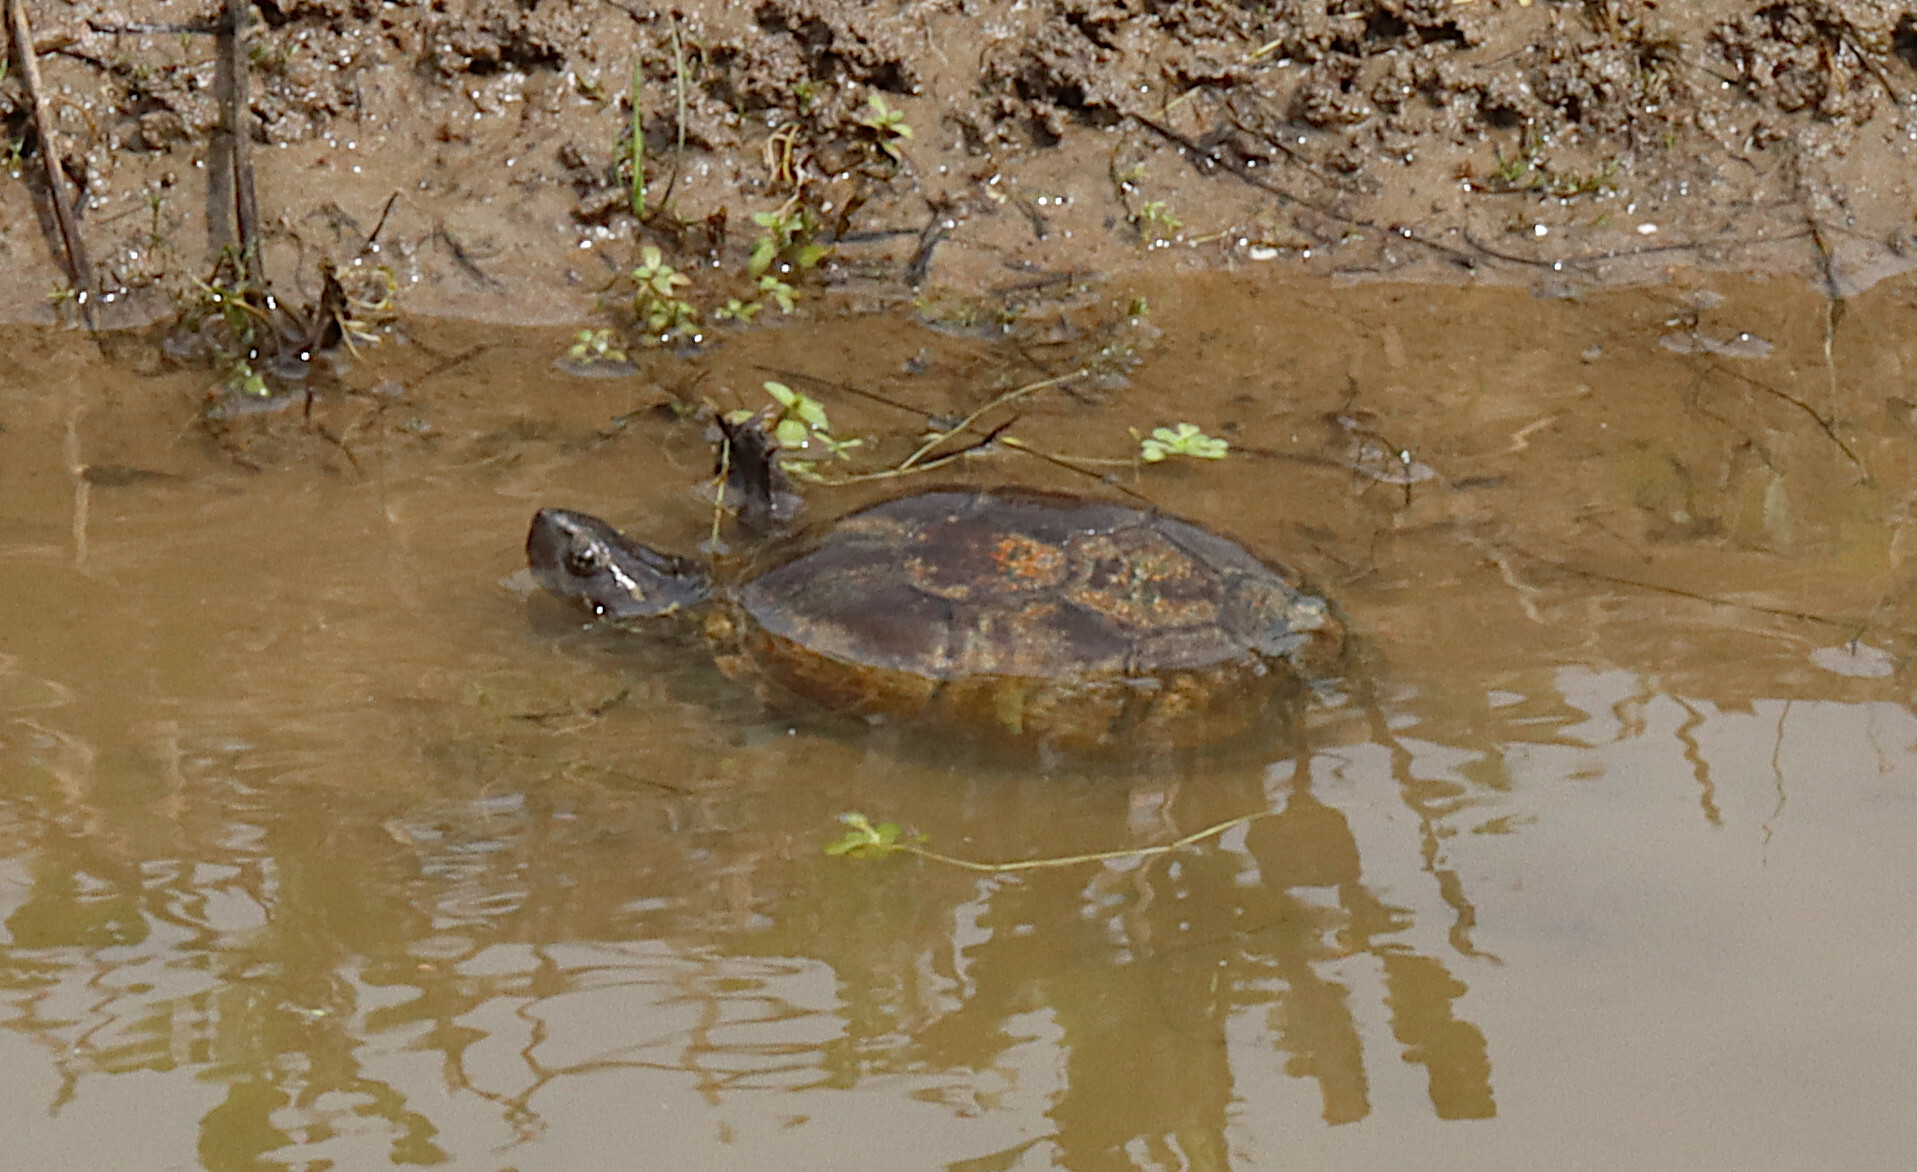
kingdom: Animalia
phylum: Chordata
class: Testudines
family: Kinosternidae
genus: Kinosternon
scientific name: Kinosternon subrubrum
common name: Eastern mud turtle
